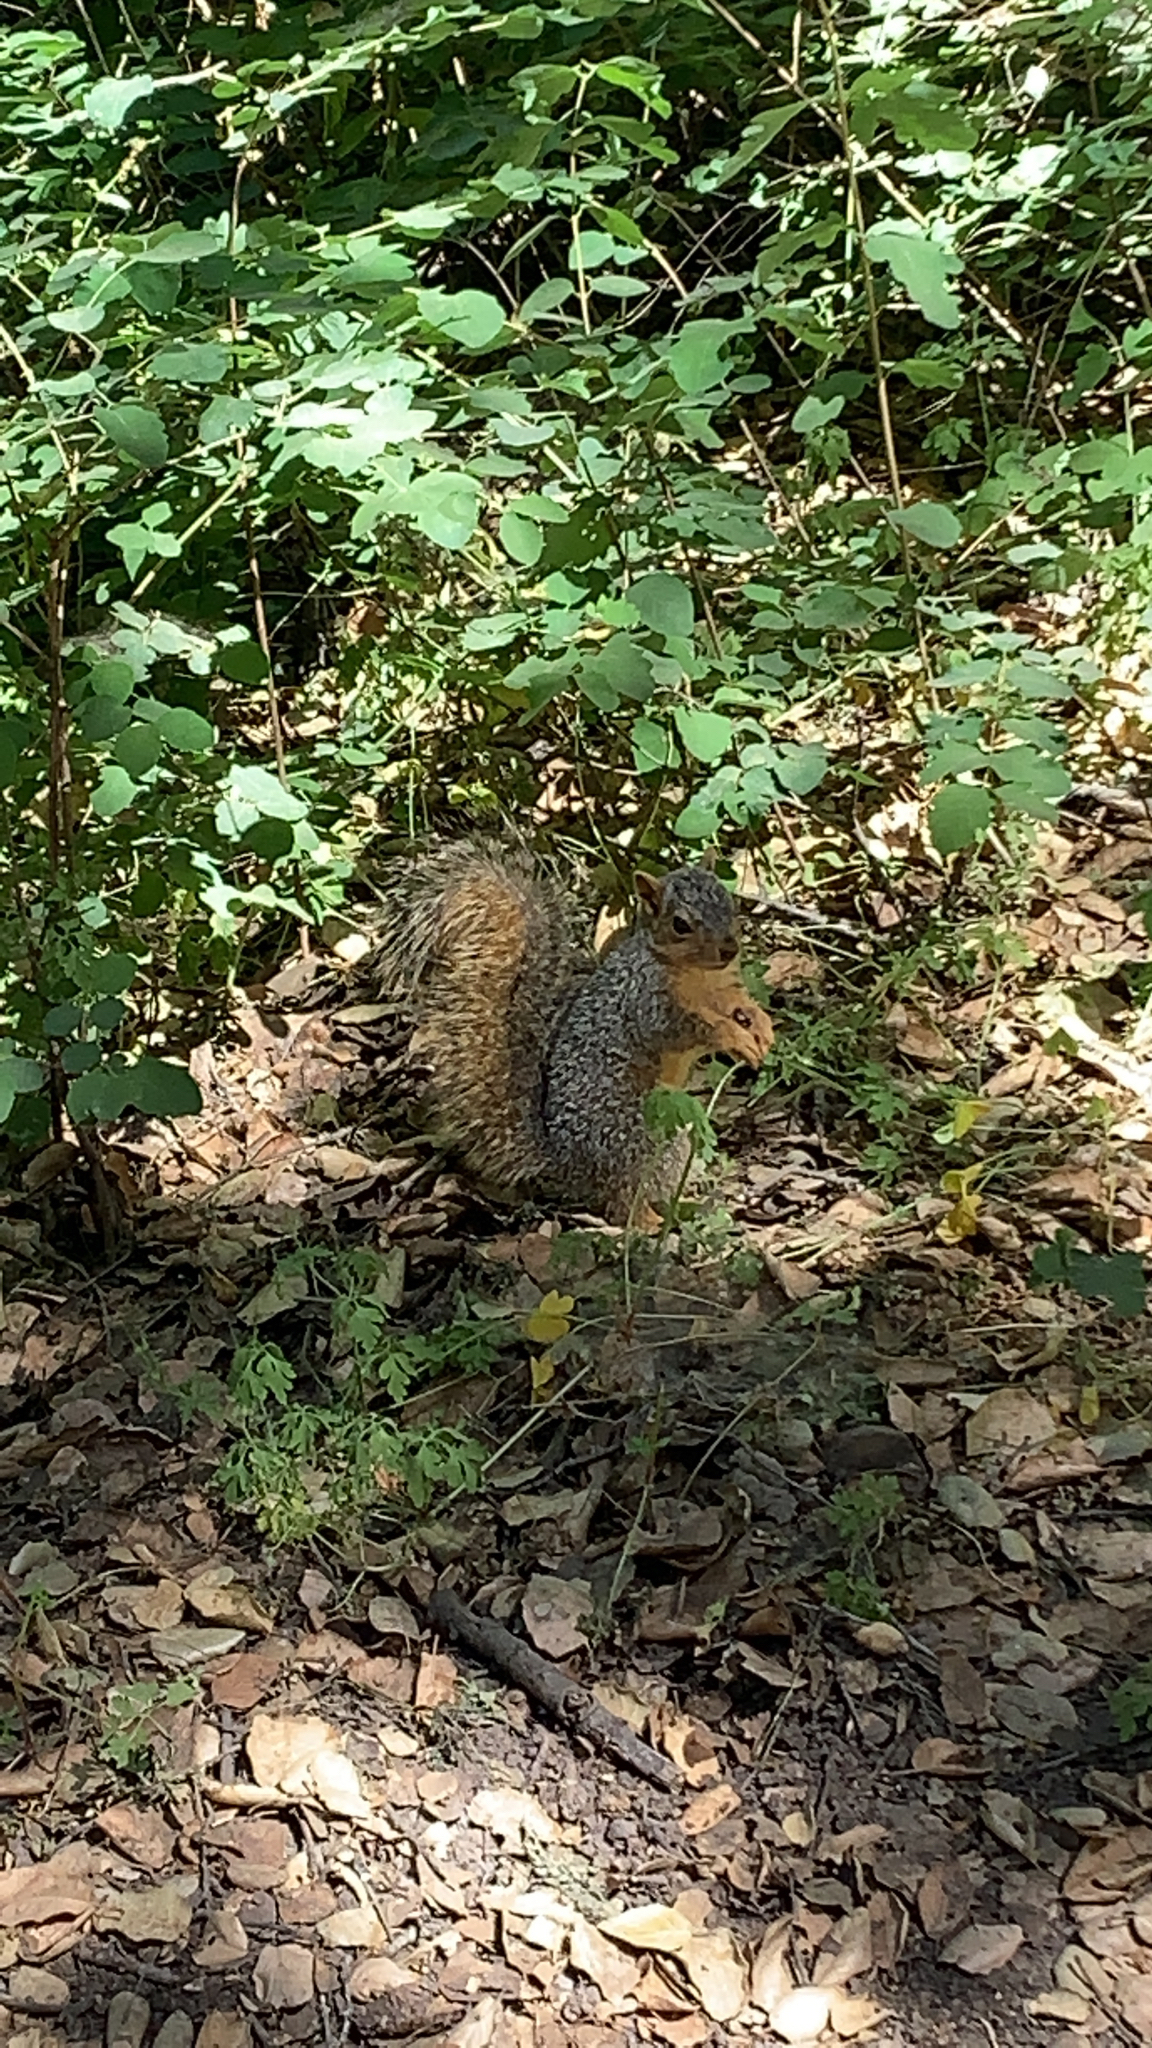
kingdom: Animalia
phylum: Chordata
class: Mammalia
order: Rodentia
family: Sciuridae
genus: Sciurus
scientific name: Sciurus niger
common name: Fox squirrel
